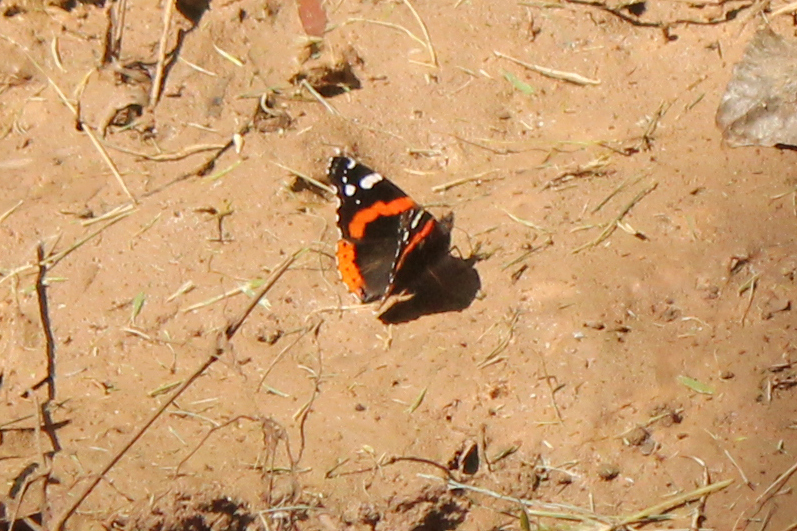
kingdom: Animalia
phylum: Arthropoda
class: Insecta
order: Lepidoptera
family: Nymphalidae
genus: Vanessa
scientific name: Vanessa atalanta
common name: Red admiral
